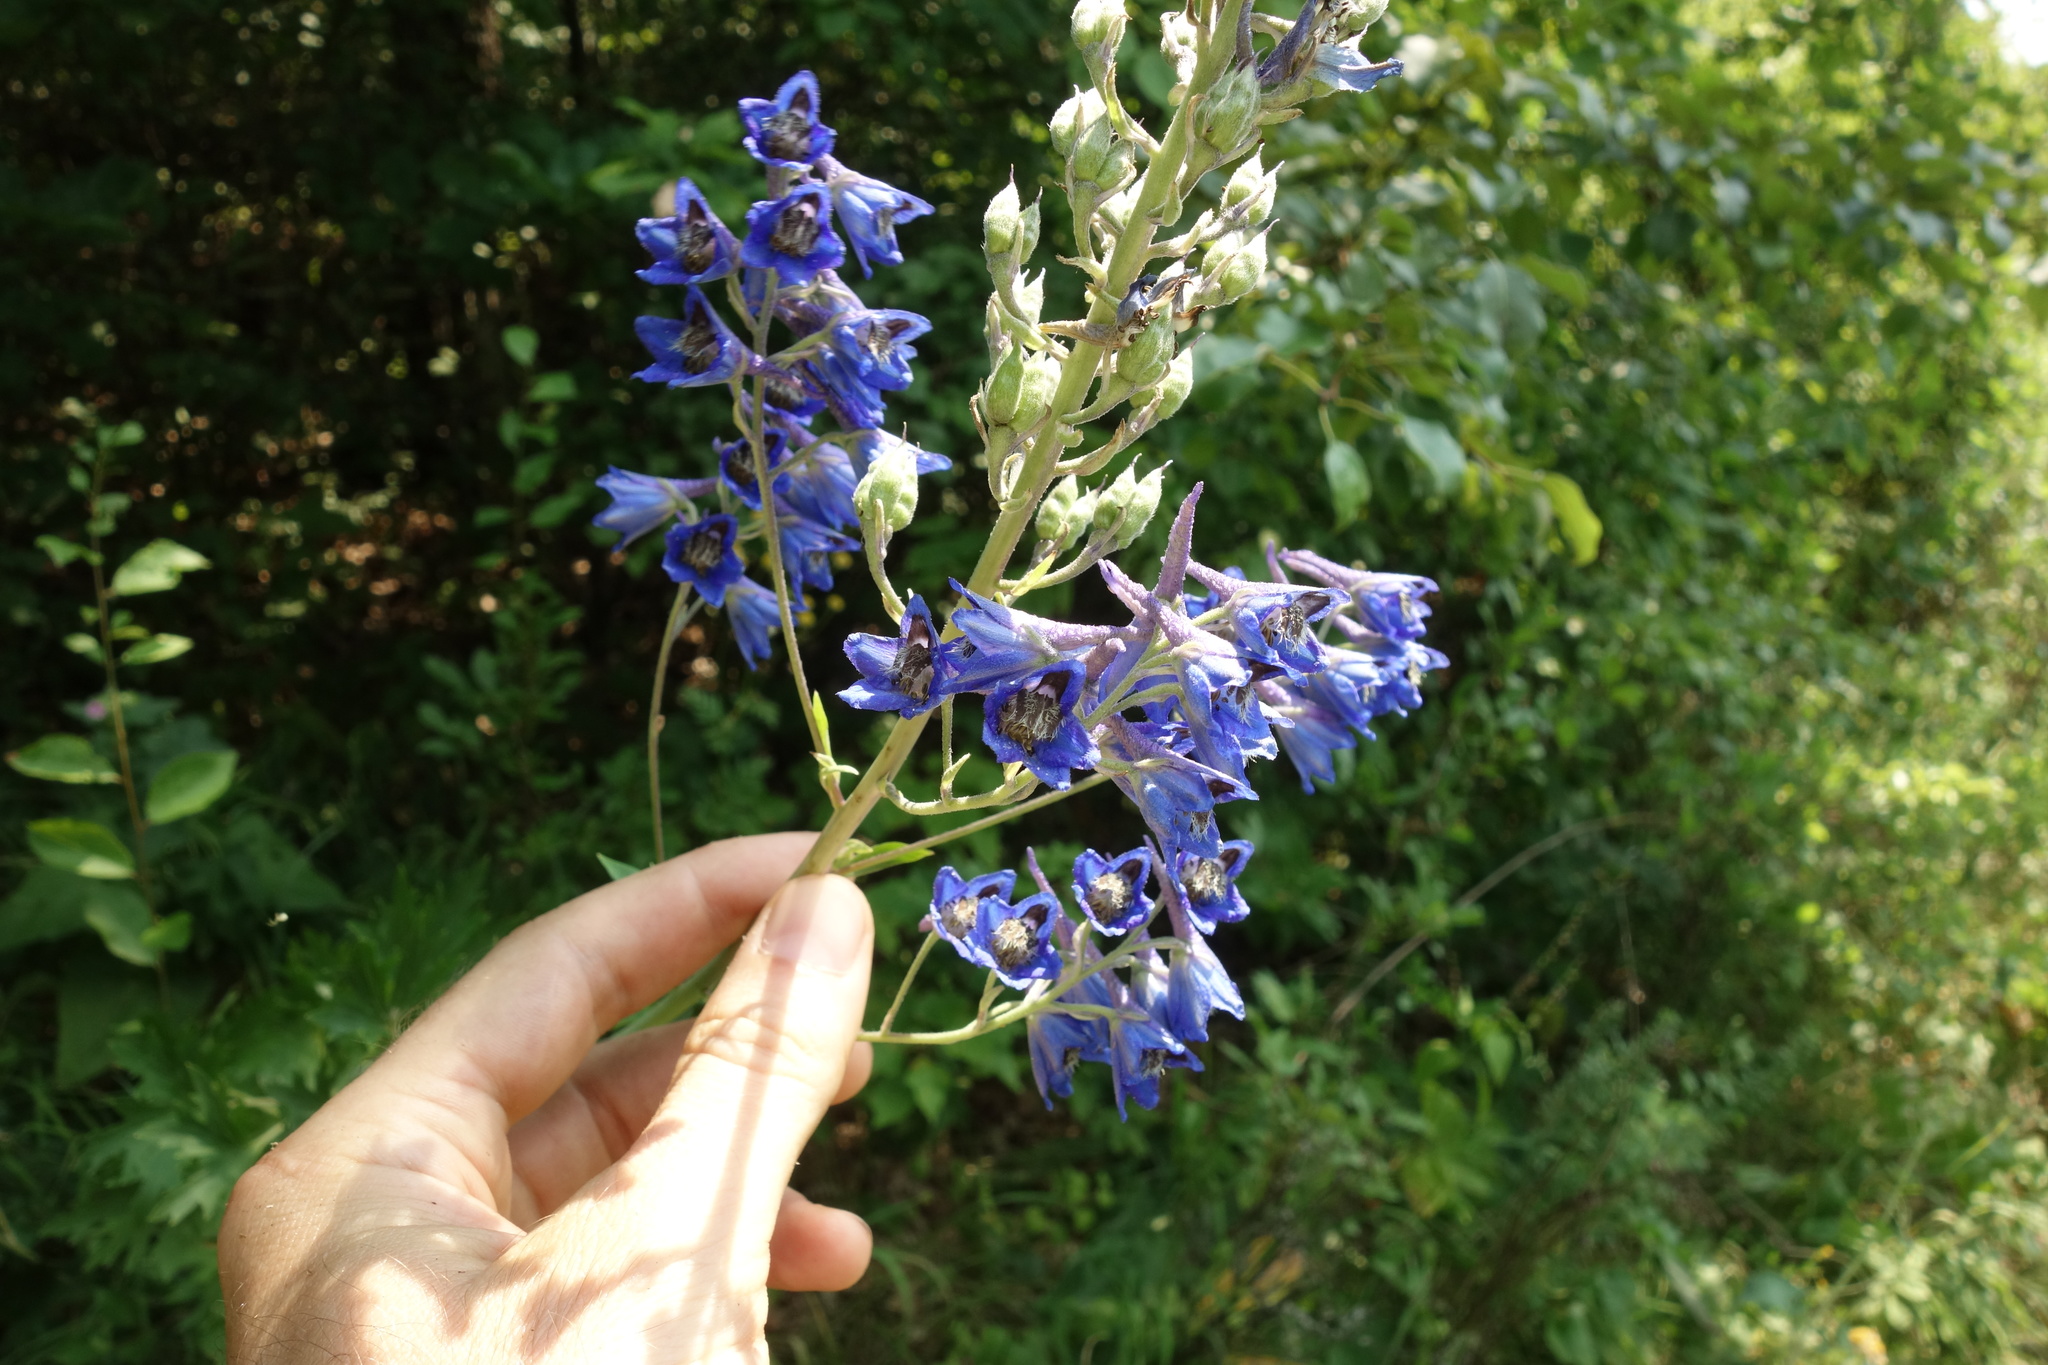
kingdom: Plantae
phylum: Tracheophyta
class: Magnoliopsida
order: Ranunculales
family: Ranunculaceae
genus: Delphinium
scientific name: Delphinium cuneatum
